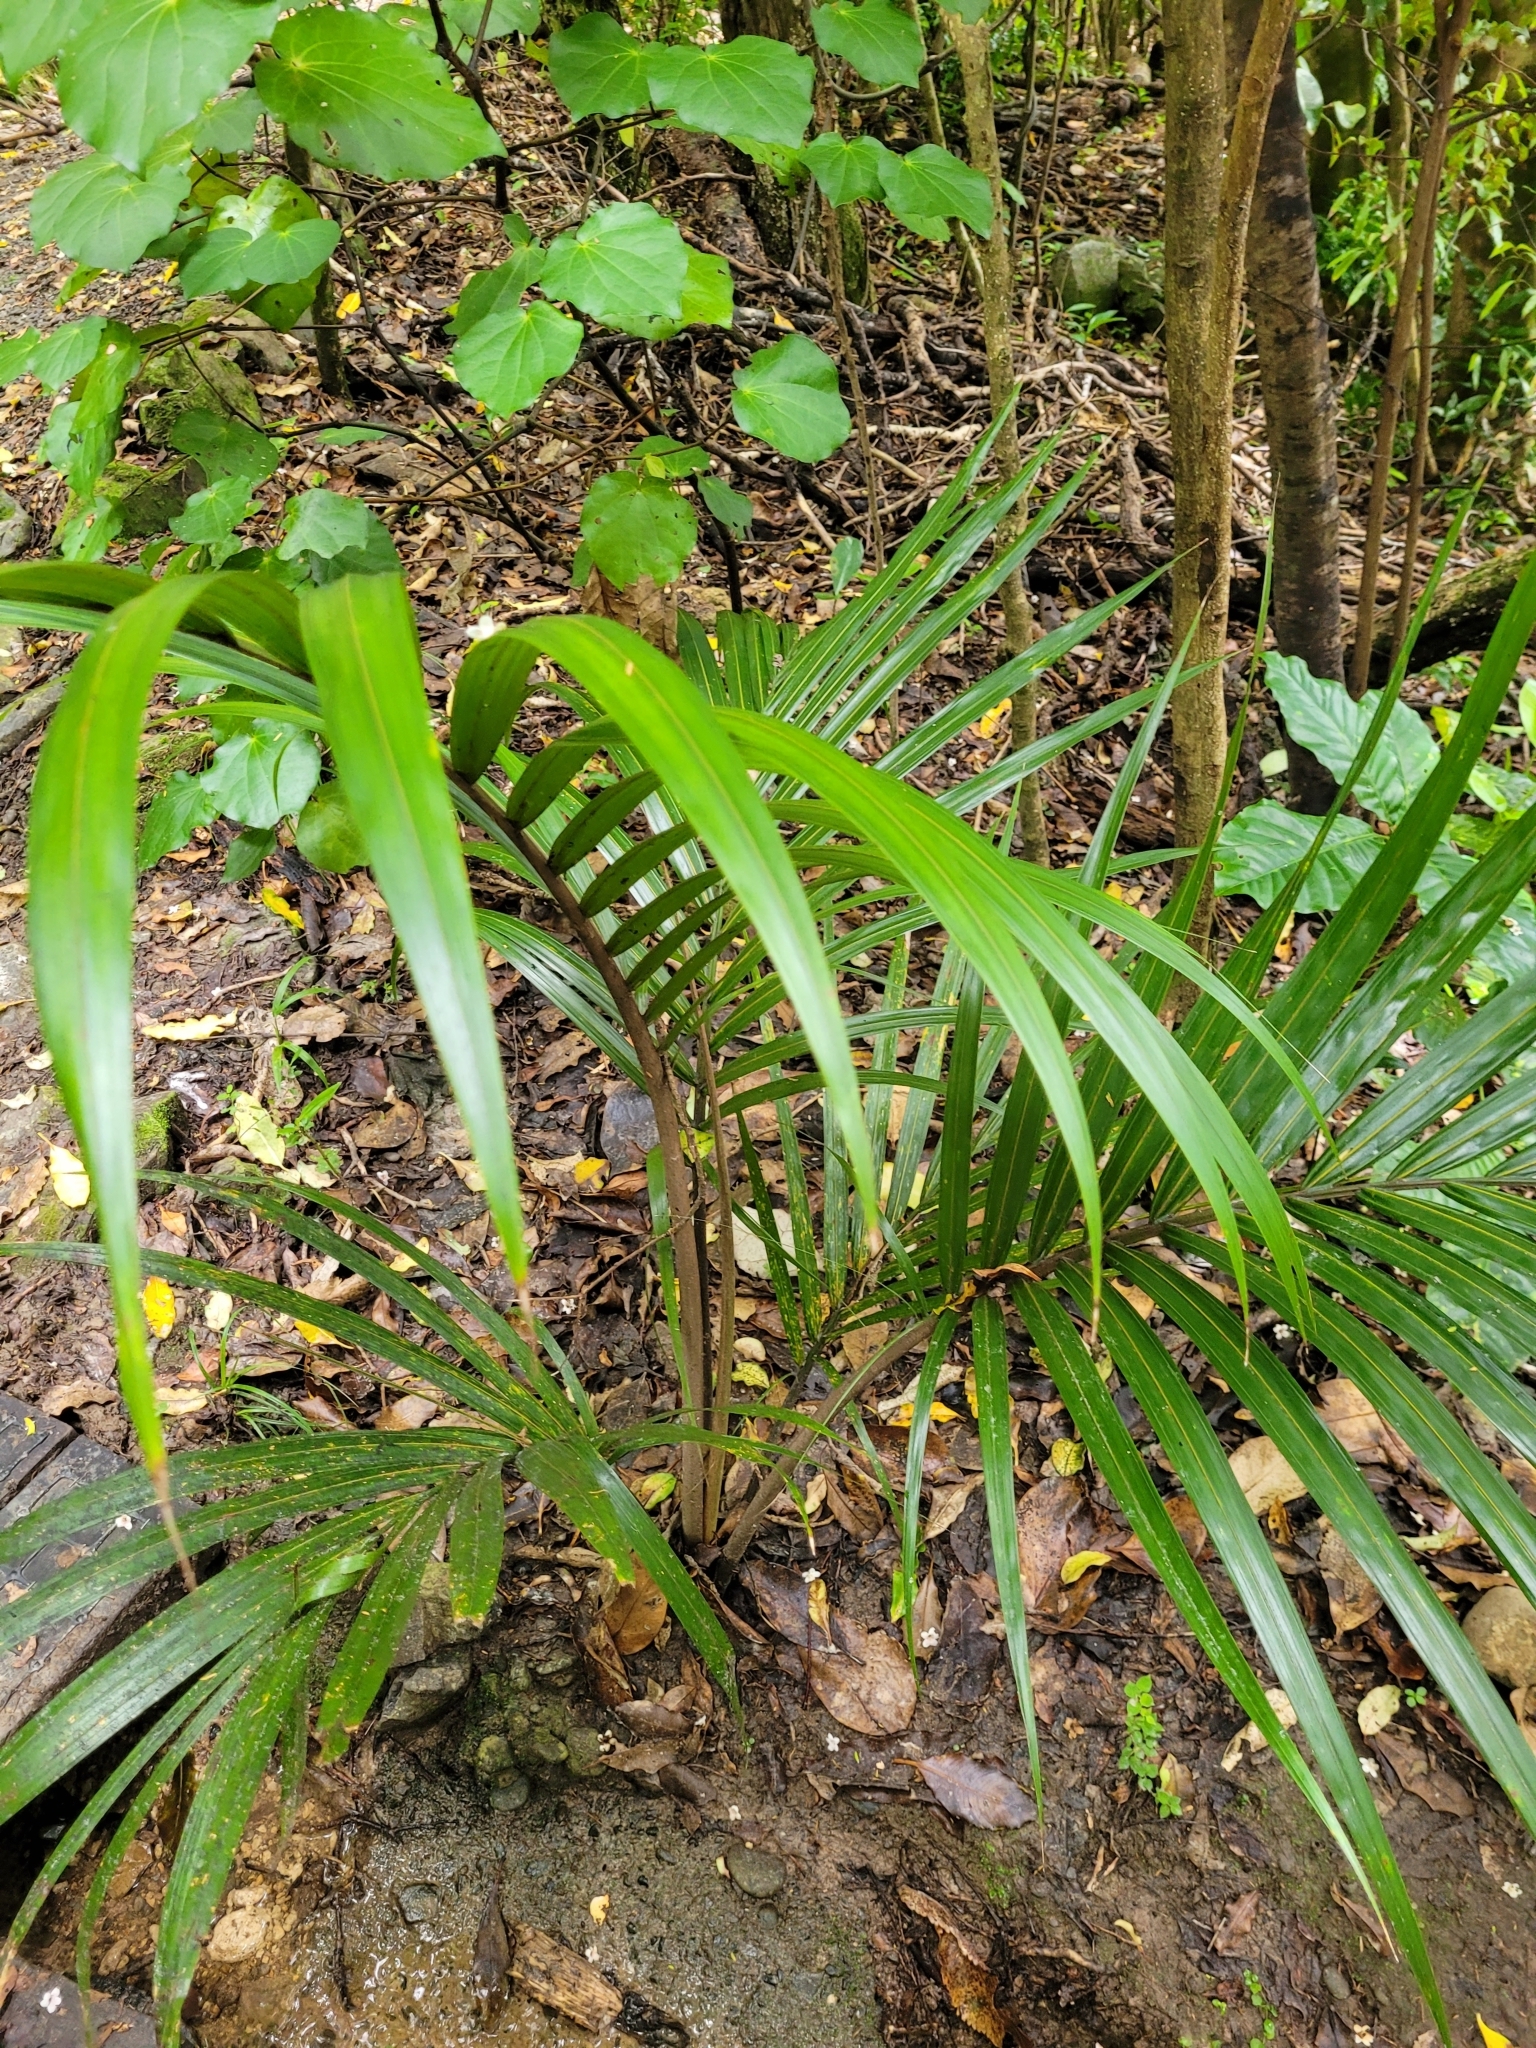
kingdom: Plantae
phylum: Tracheophyta
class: Liliopsida
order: Arecales
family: Arecaceae
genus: Rhopalostylis
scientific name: Rhopalostylis sapida
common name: Feather-duster palm
